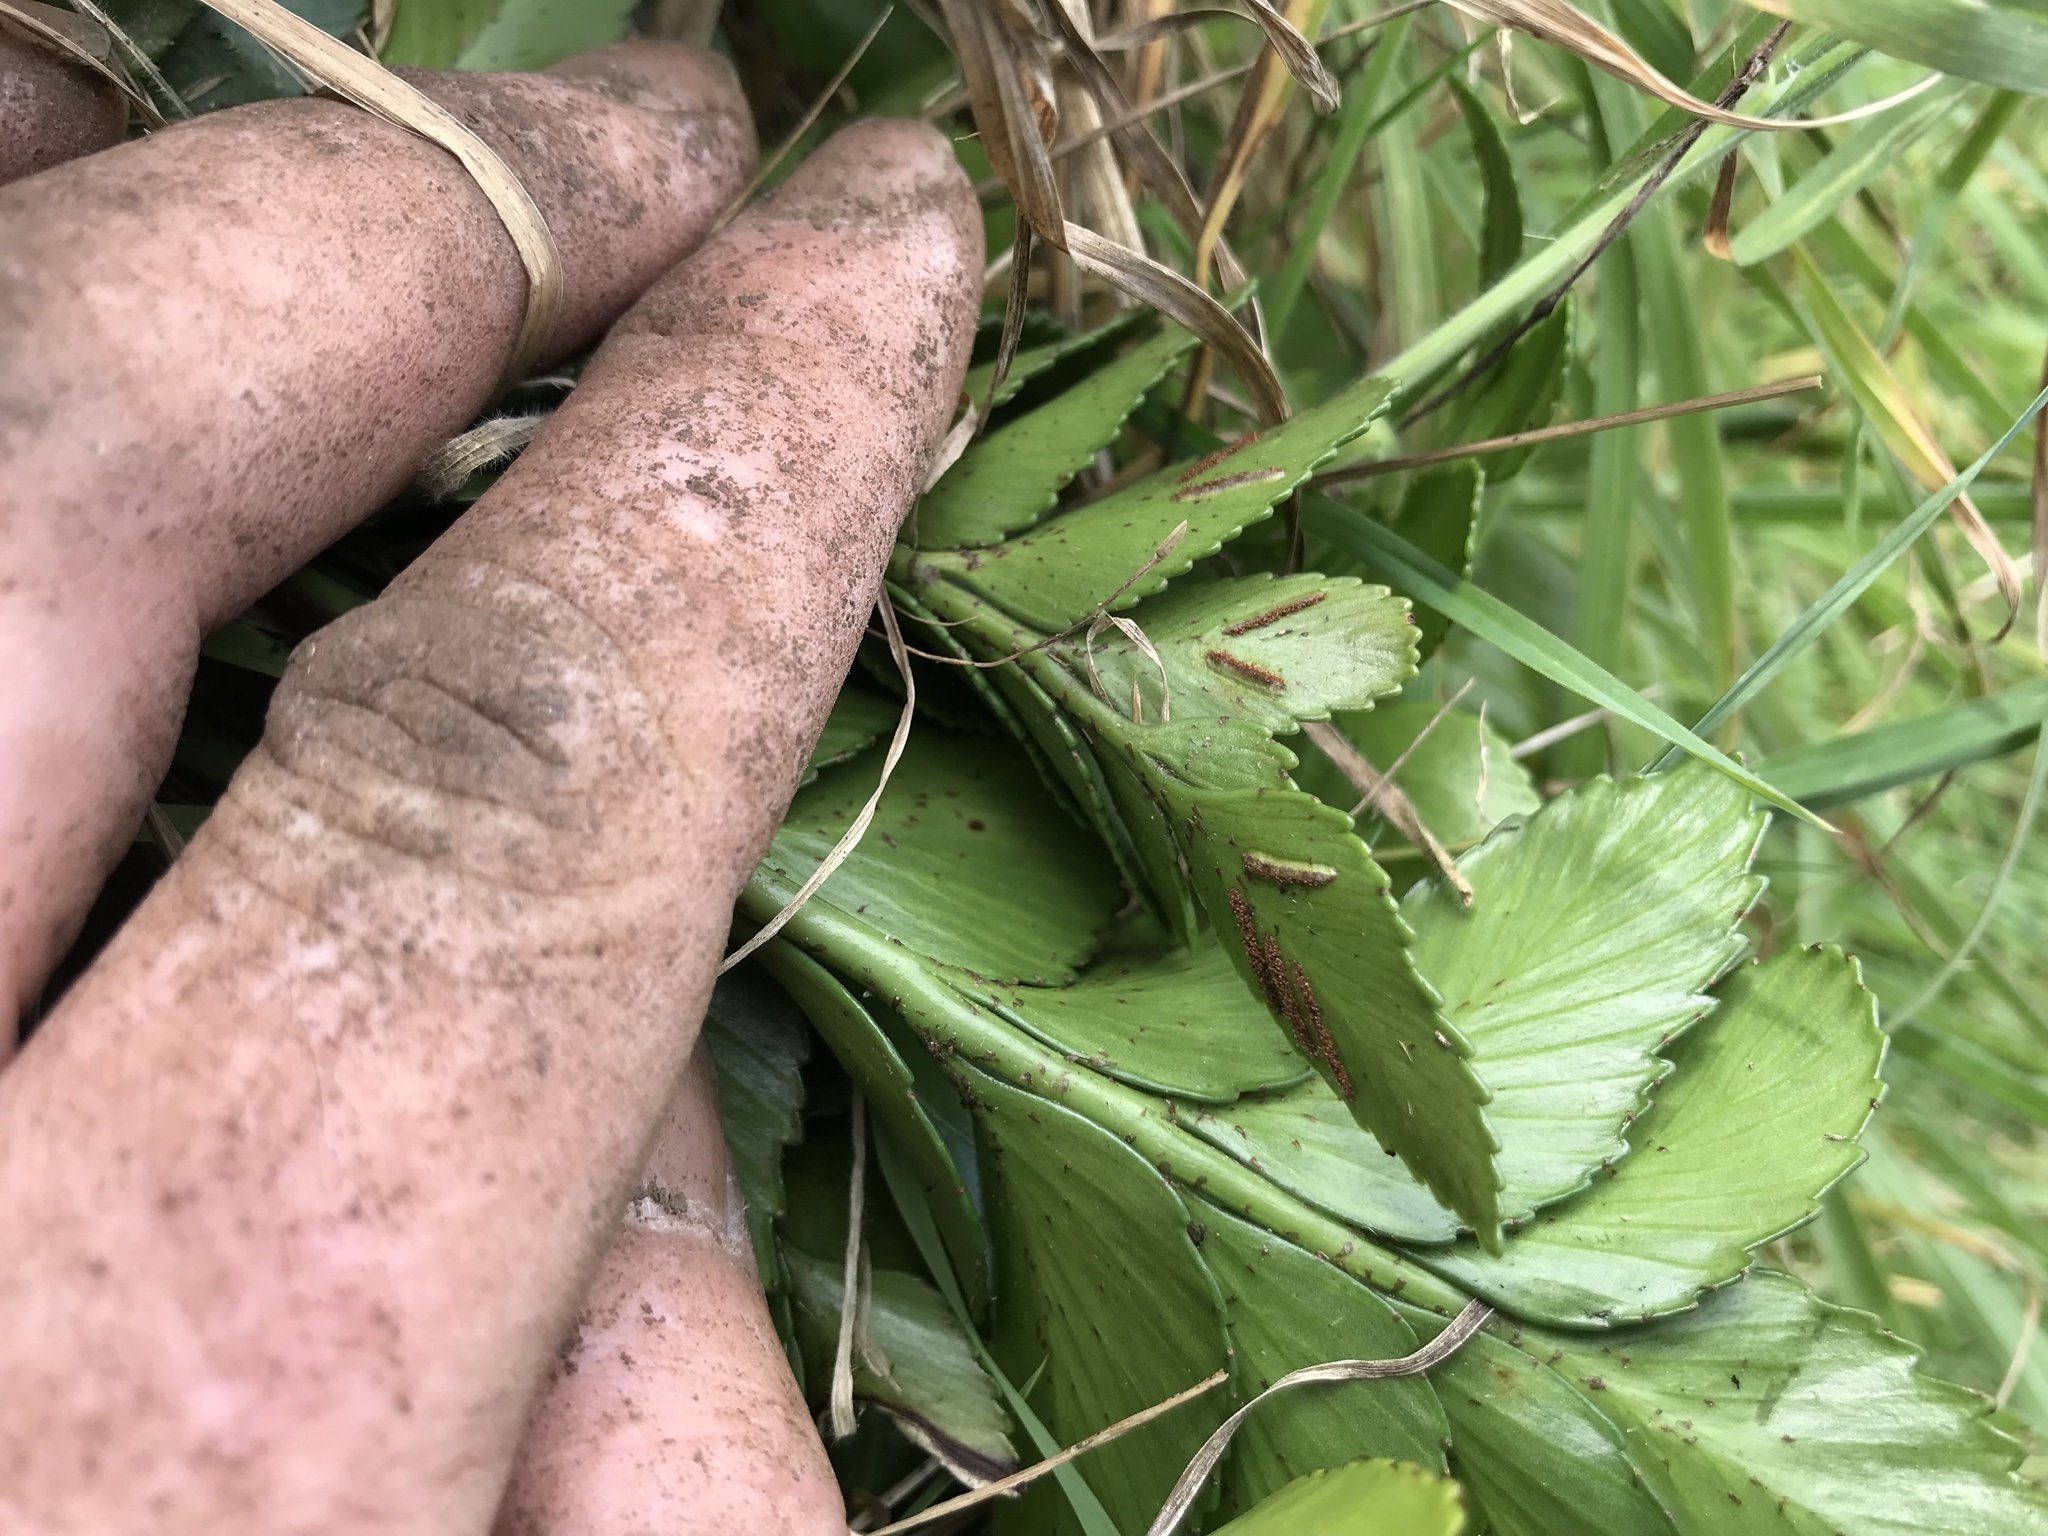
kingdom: Plantae
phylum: Tracheophyta
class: Polypodiopsida
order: Polypodiales
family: Aspleniaceae
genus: Asplenium
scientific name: Asplenium obtusatum
